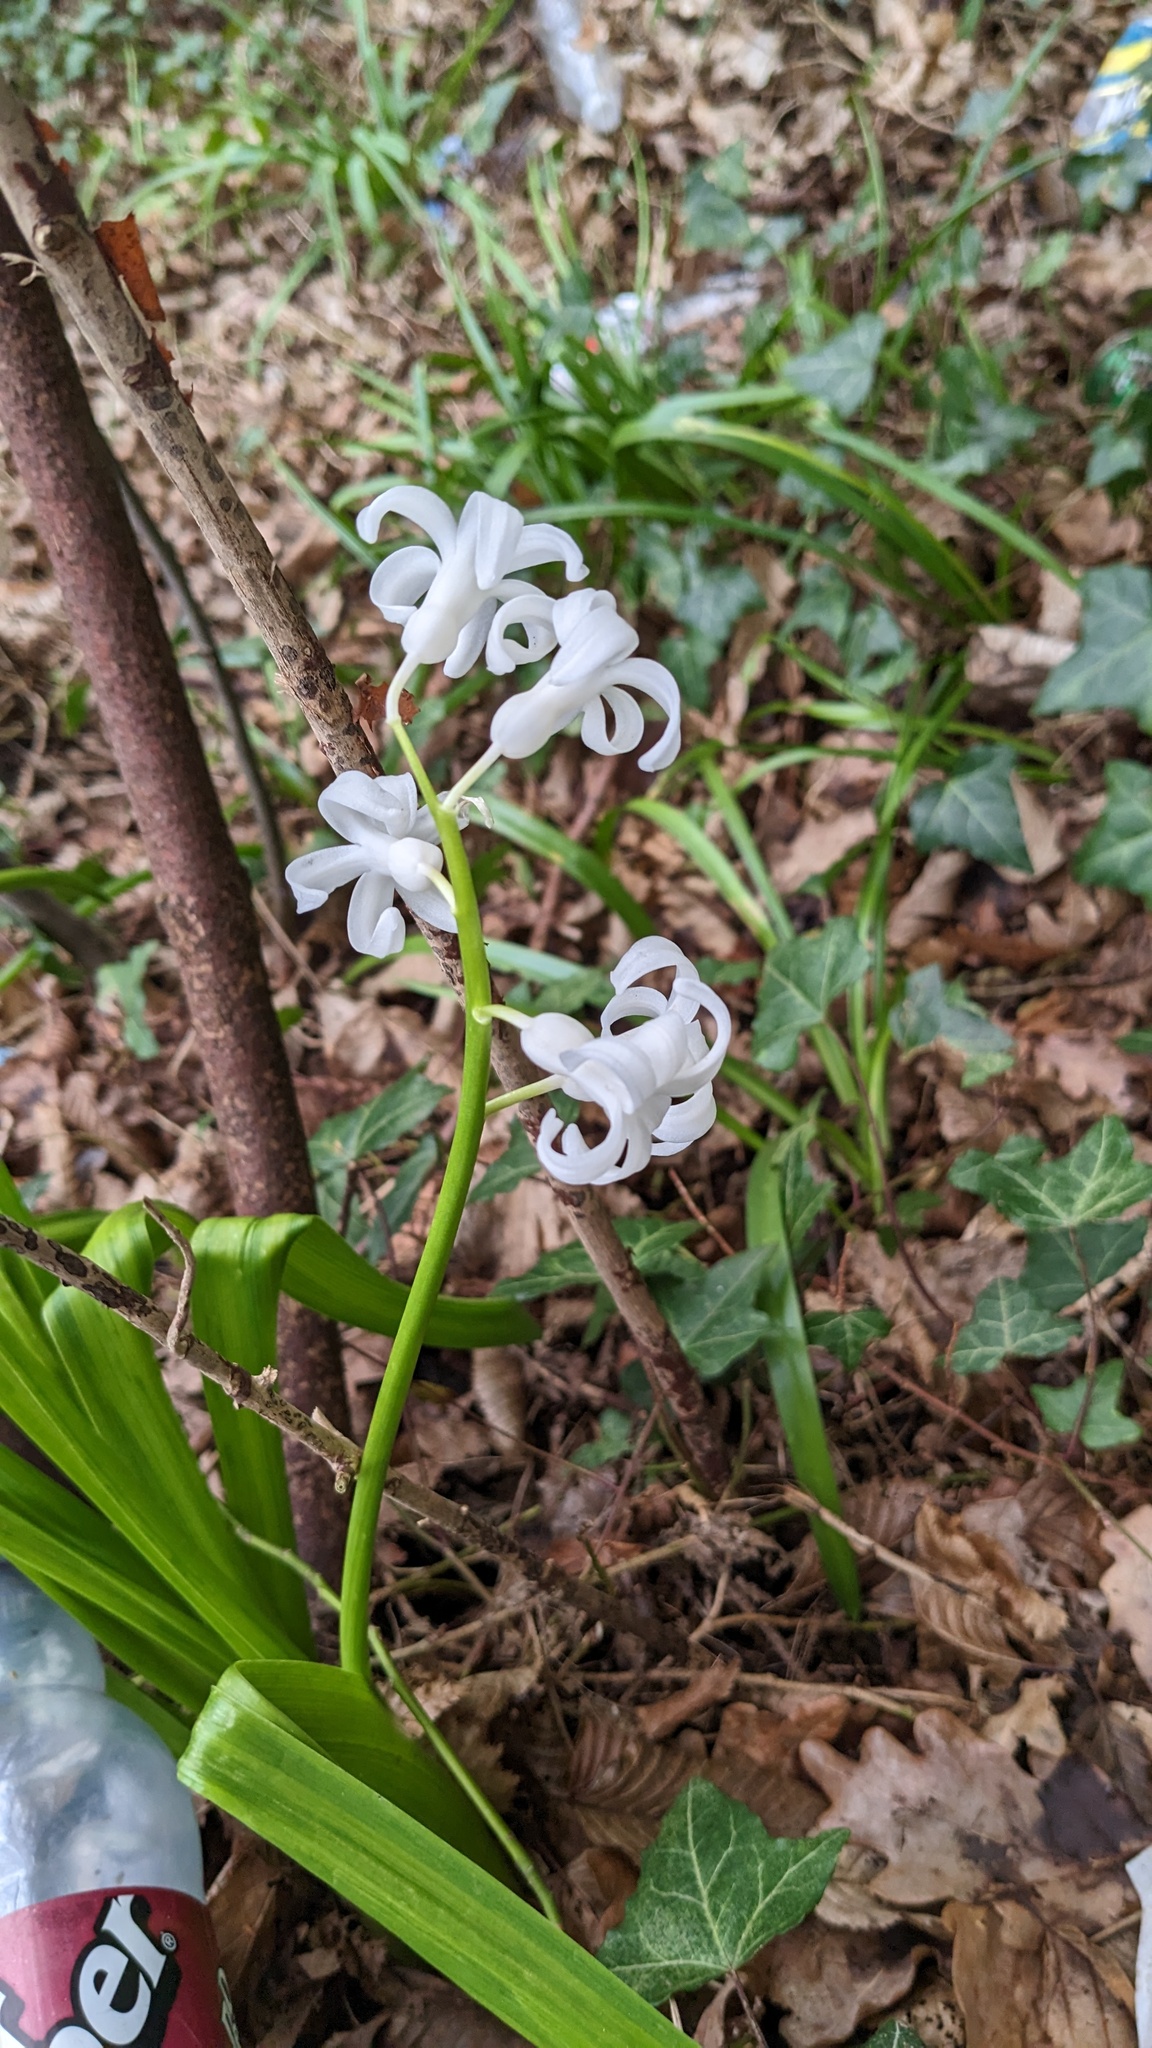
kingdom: Plantae
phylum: Tracheophyta
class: Liliopsida
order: Asparagales
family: Asparagaceae
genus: Hyacinthus
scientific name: Hyacinthus orientalis
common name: Hyacinth
